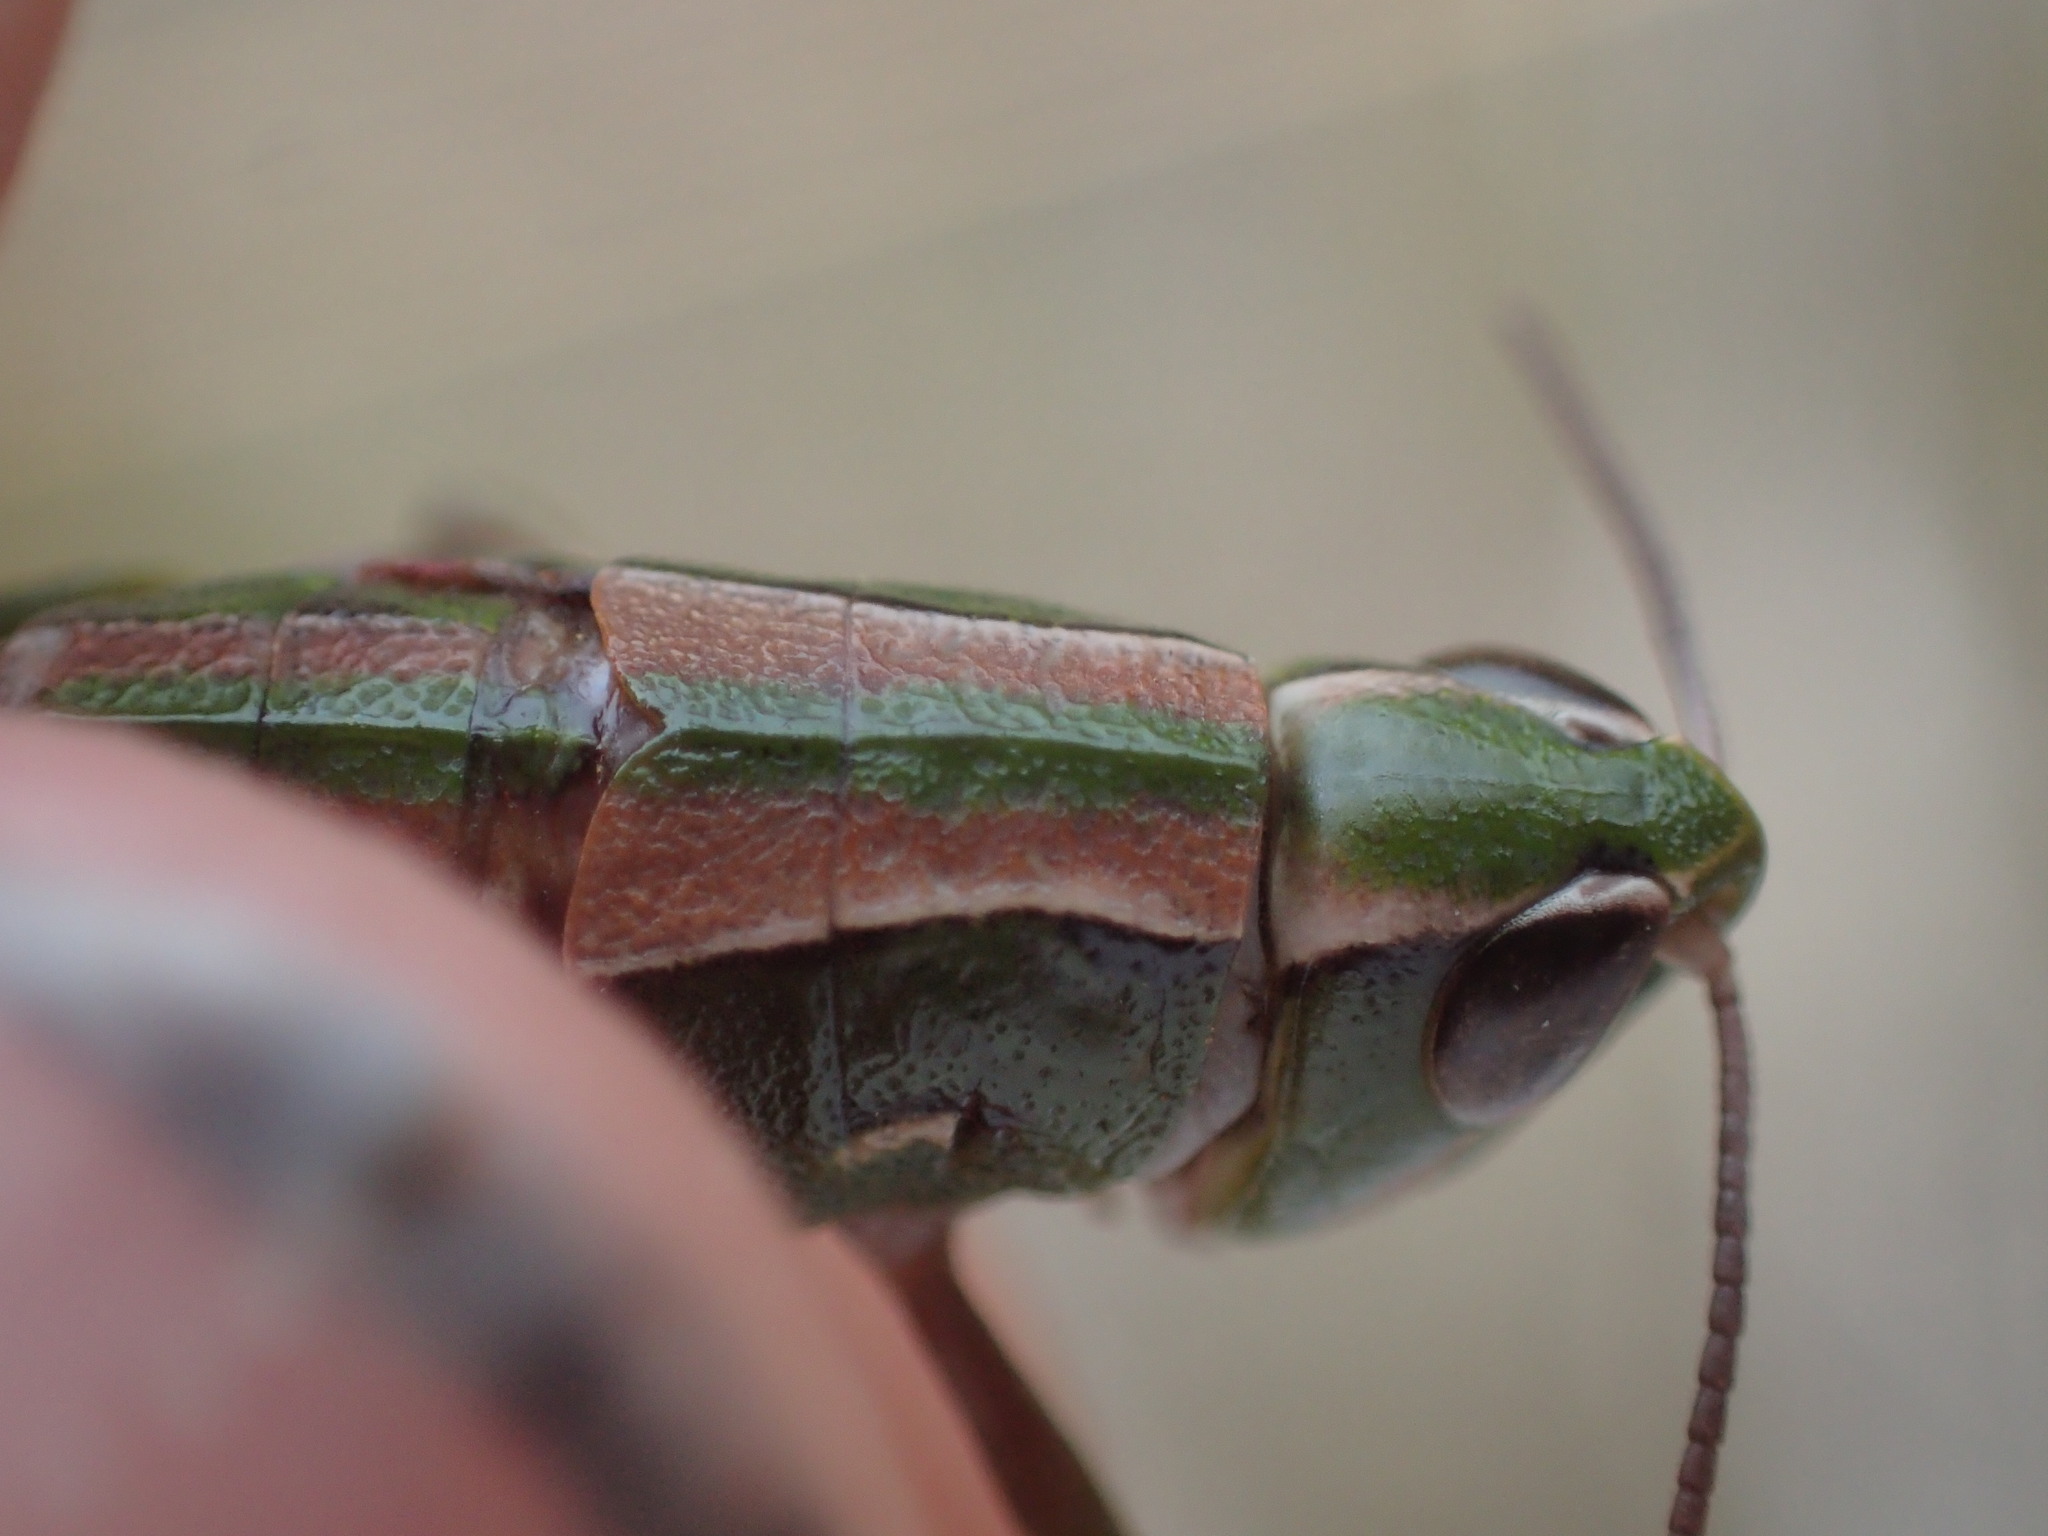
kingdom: Animalia
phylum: Arthropoda
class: Insecta
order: Orthoptera
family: Acrididae
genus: Russalpia
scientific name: Russalpia albertisi
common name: Tassie hopper
